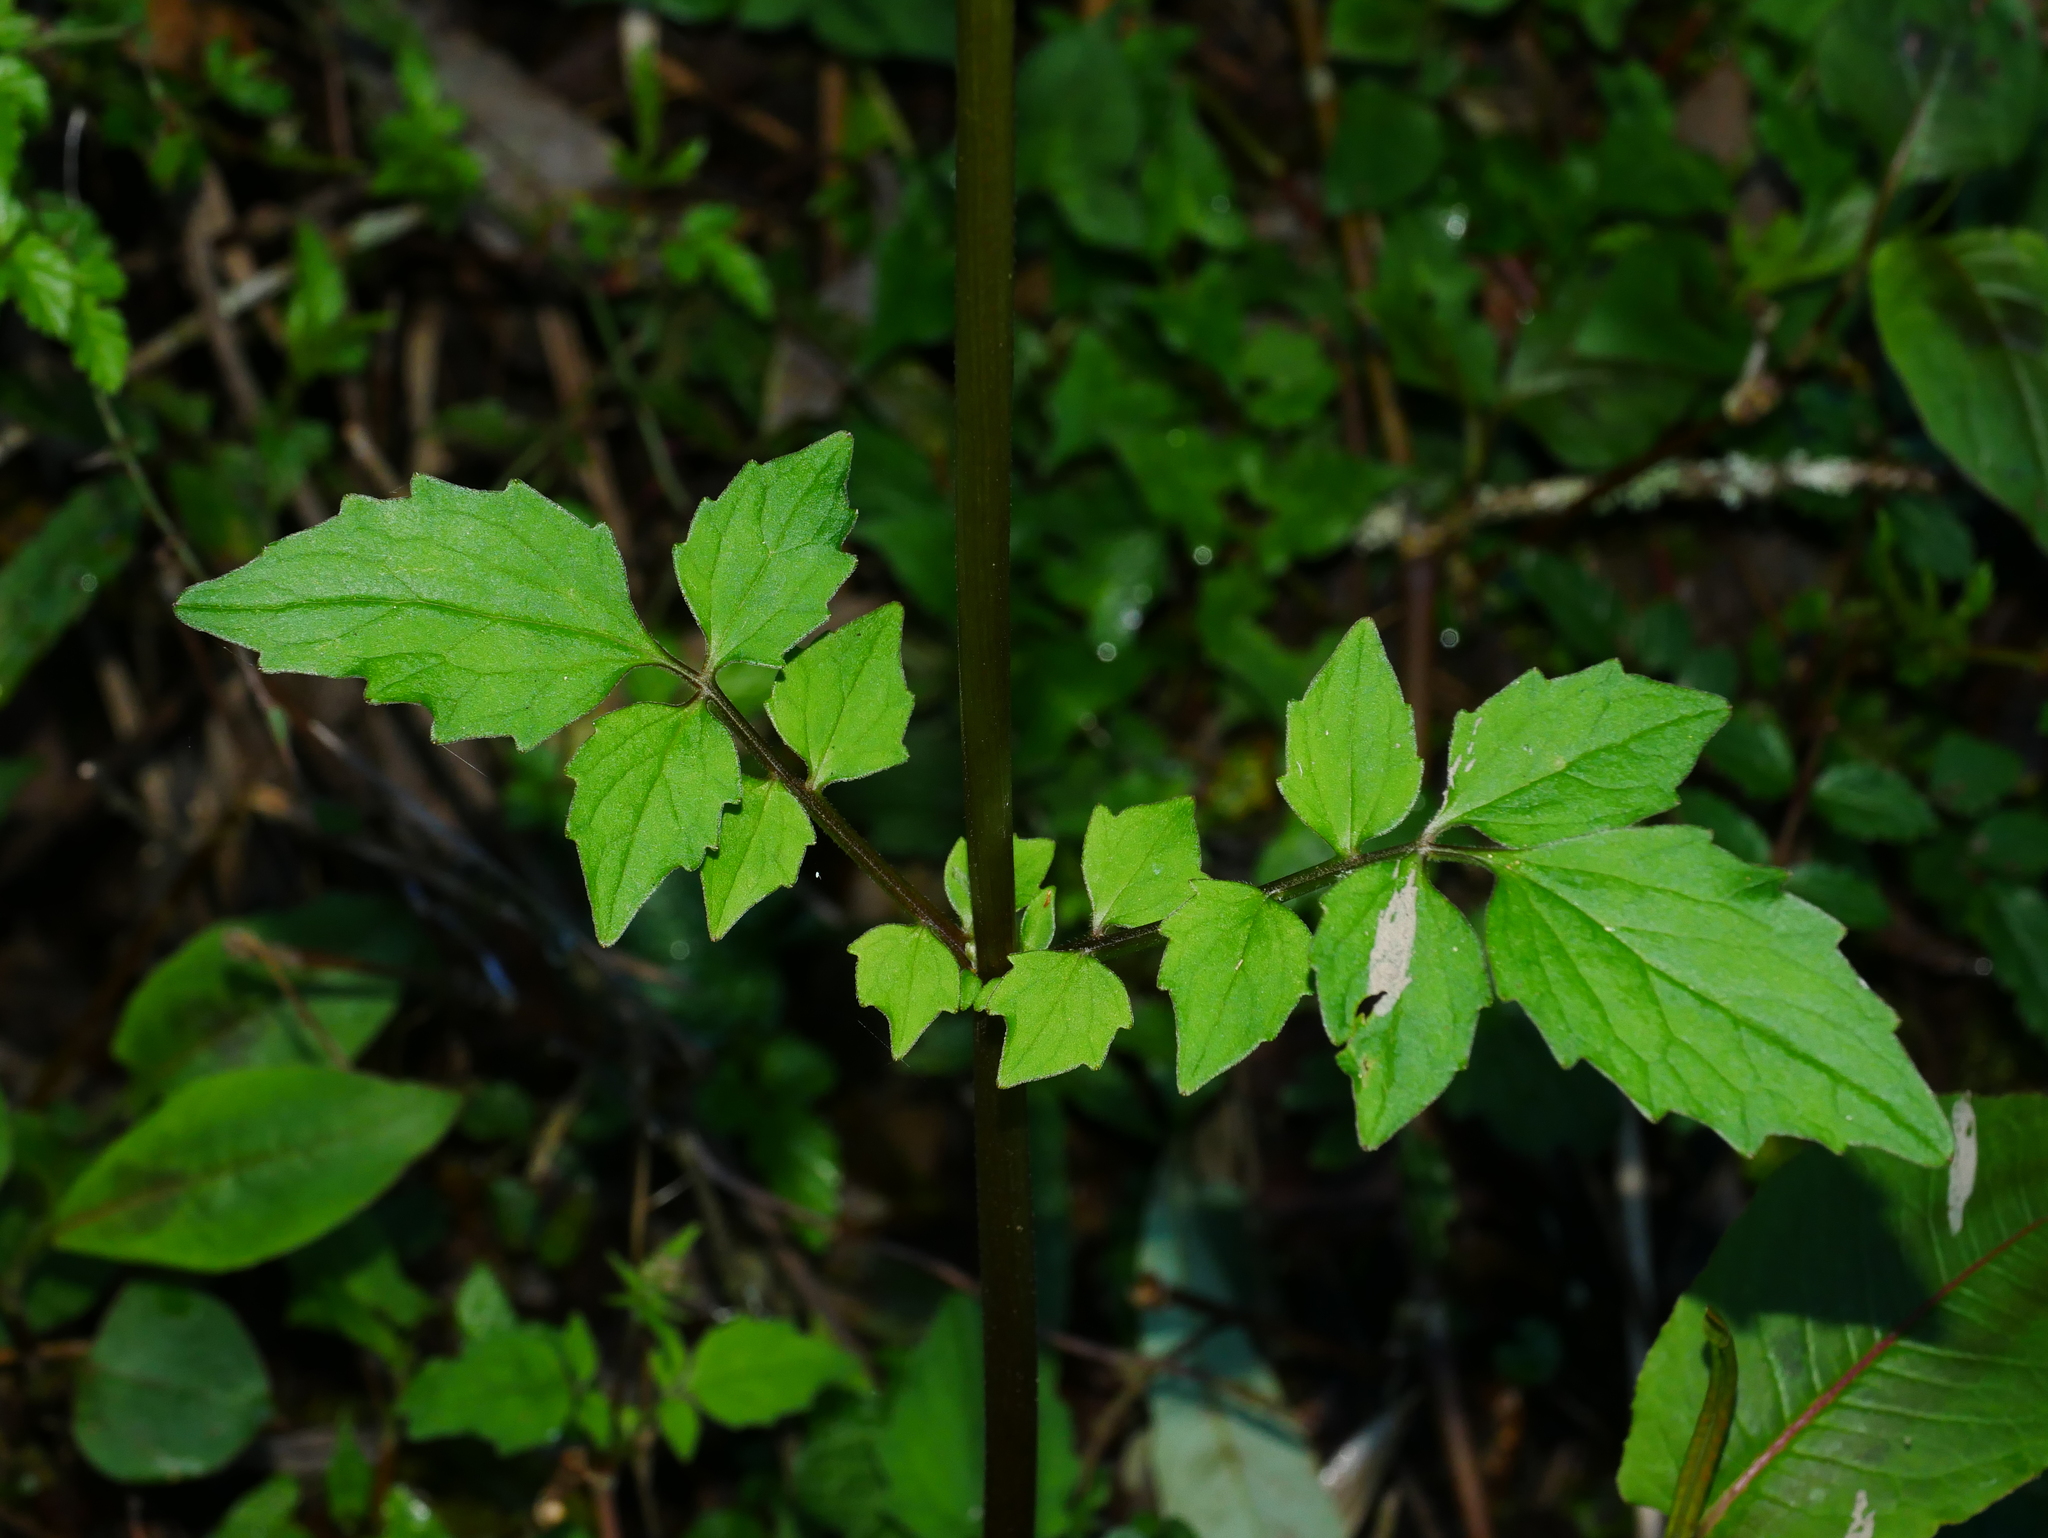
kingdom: Plantae
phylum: Tracheophyta
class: Magnoliopsida
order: Dipsacales
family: Caprifoliaceae
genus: Valeriana
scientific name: Valeriana flaccidissima
